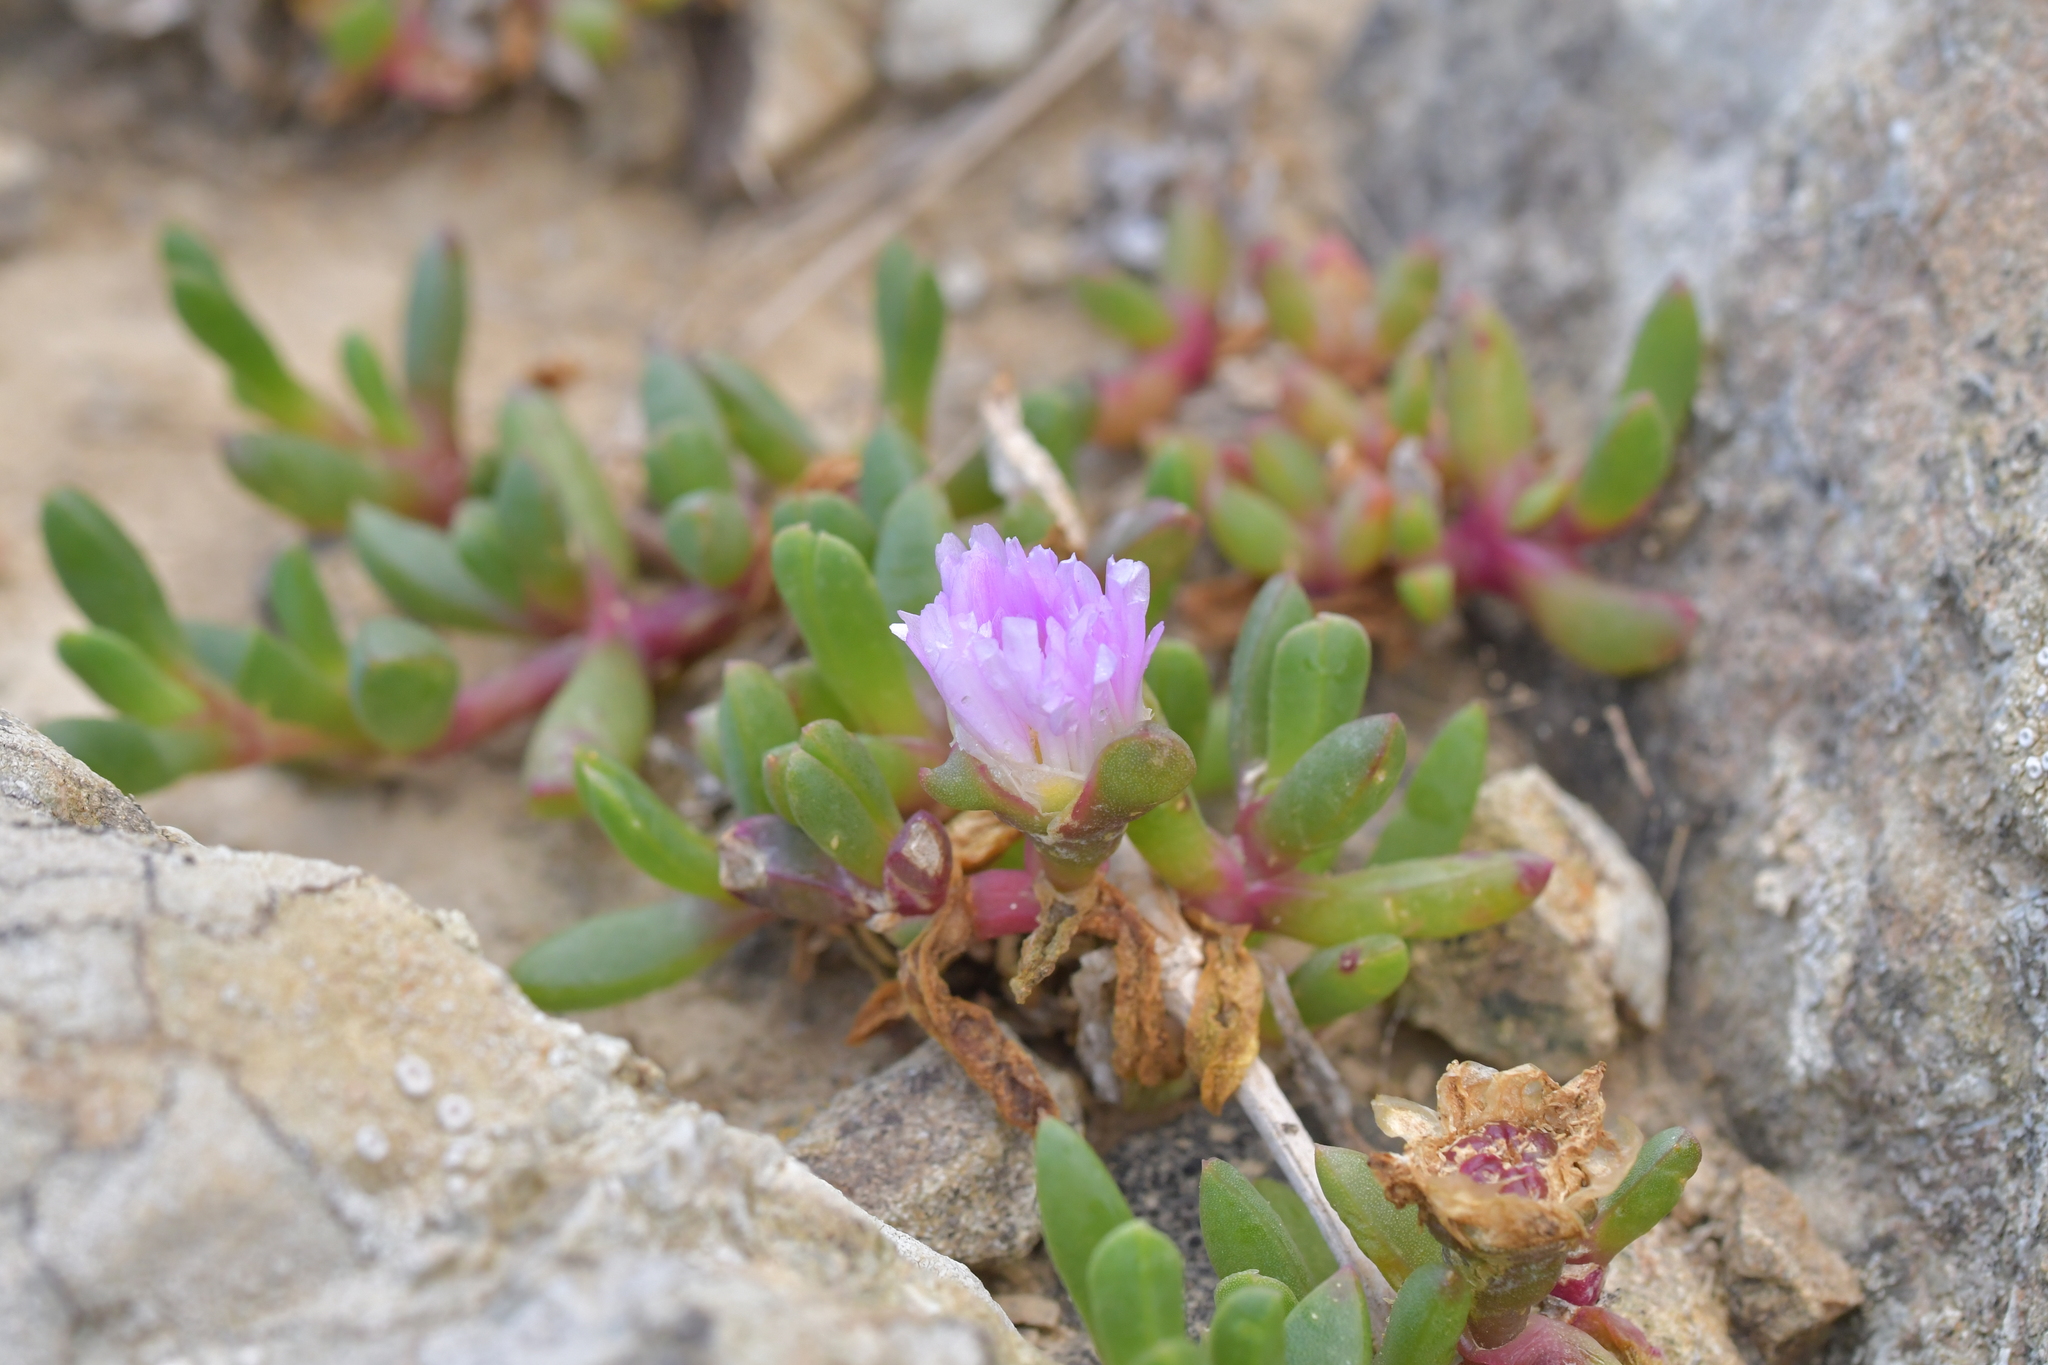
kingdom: Plantae
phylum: Tracheophyta
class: Magnoliopsida
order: Caryophyllales
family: Aizoaceae
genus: Disphyma
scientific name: Disphyma australe
